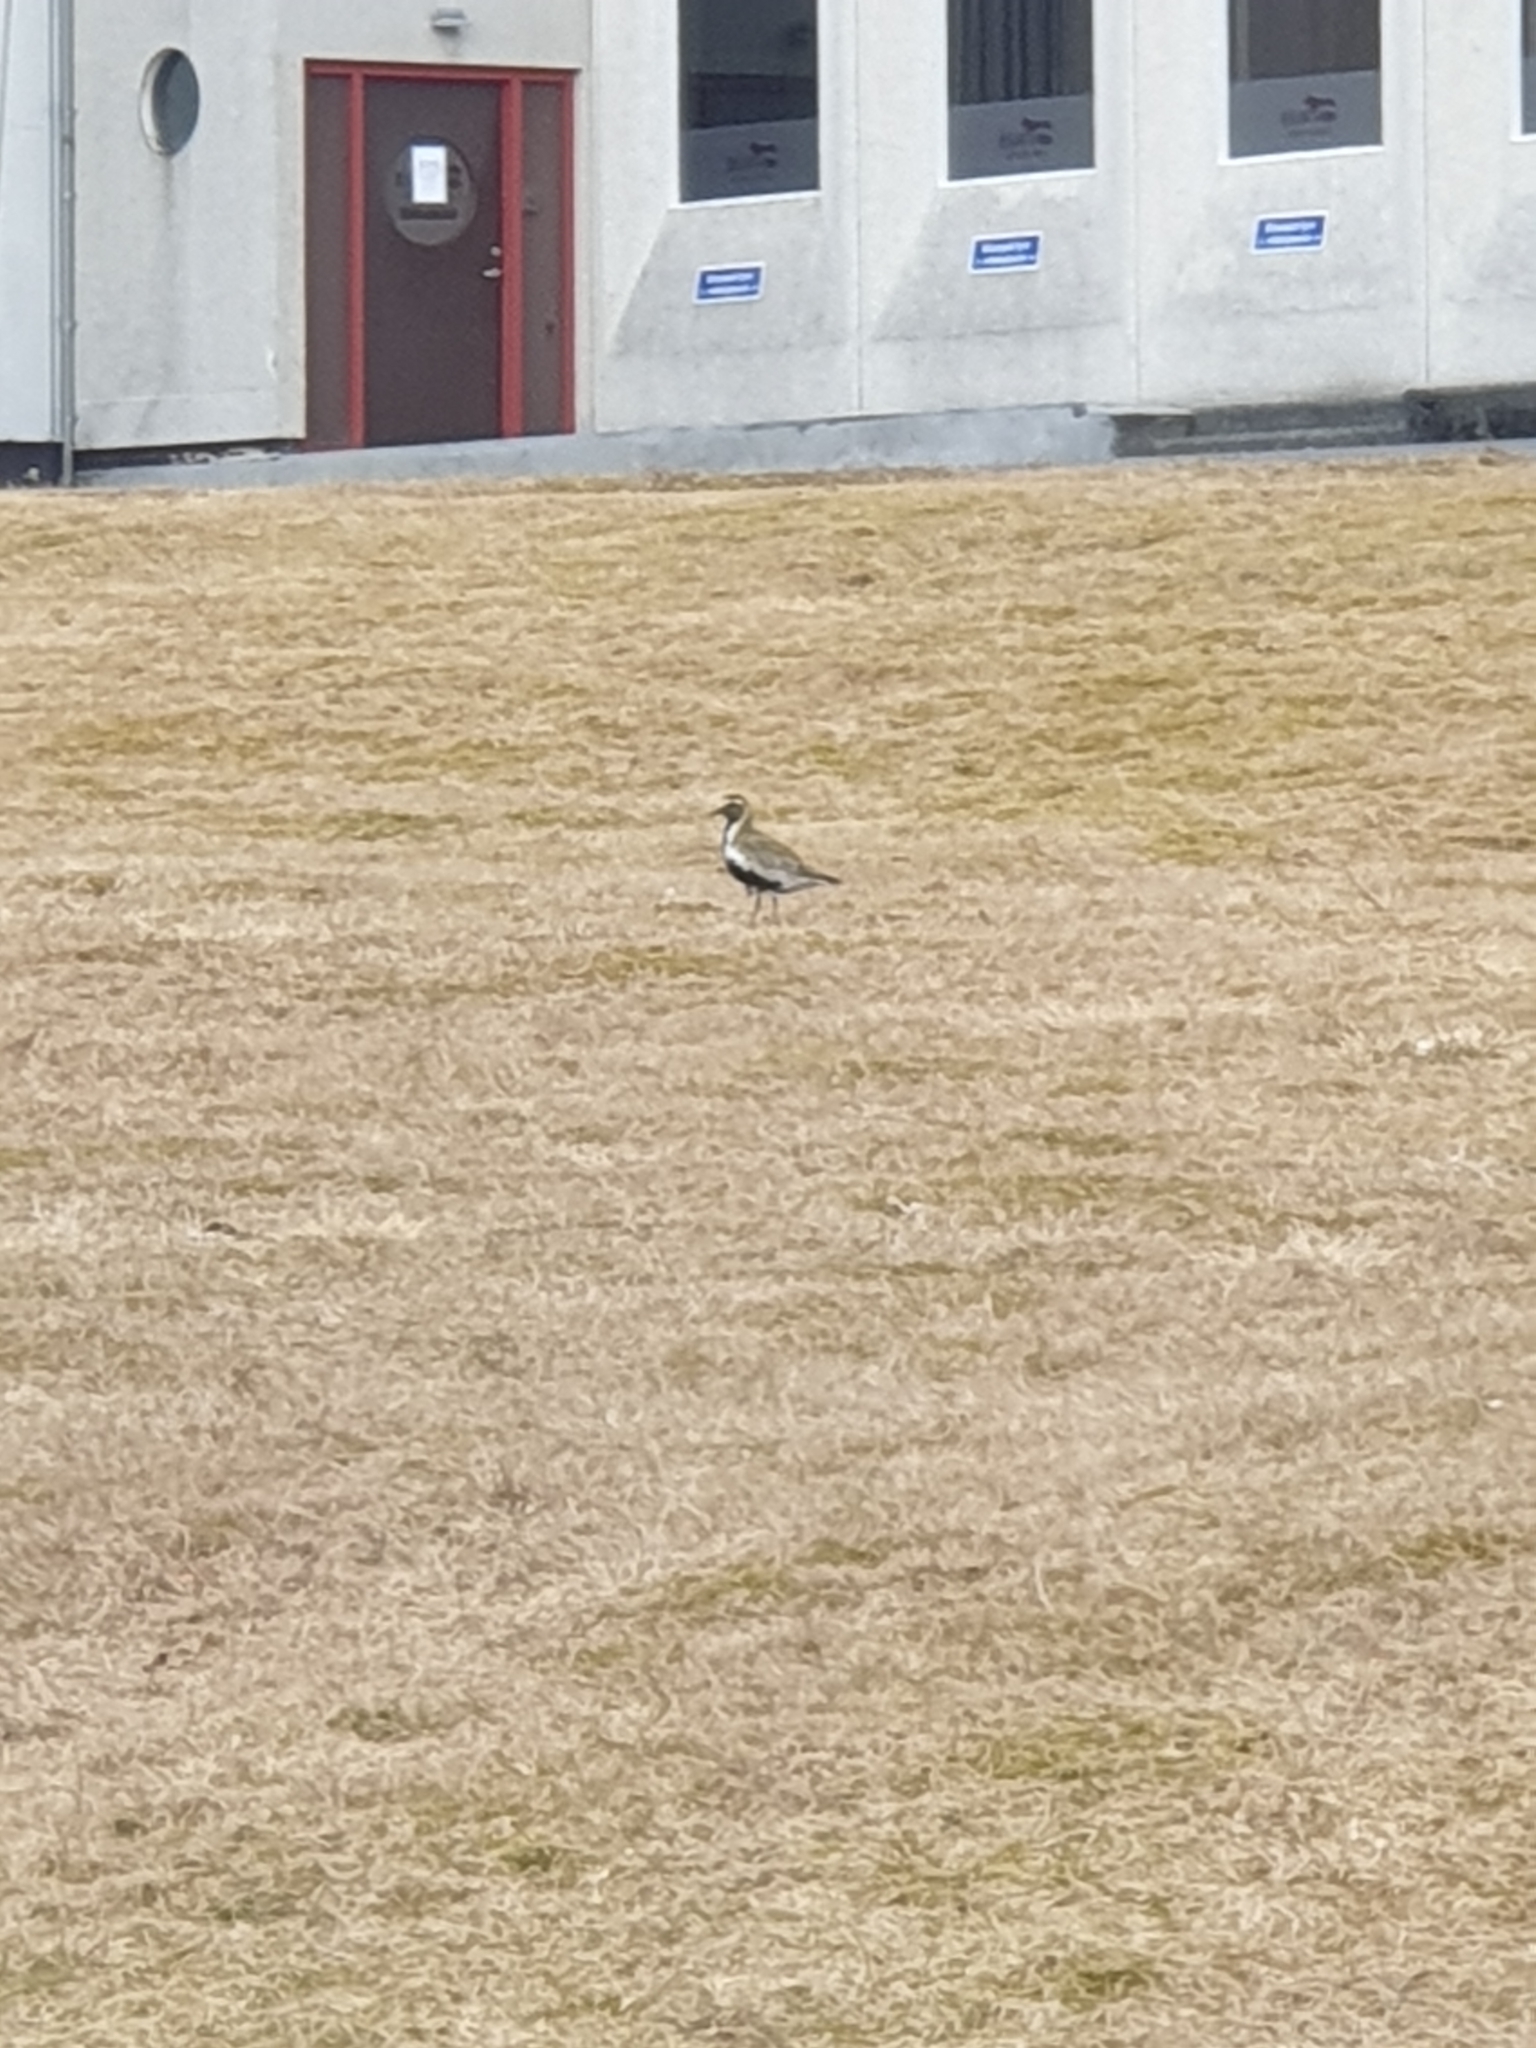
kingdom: Animalia
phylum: Chordata
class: Aves
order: Charadriiformes
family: Charadriidae
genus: Pluvialis
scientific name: Pluvialis apricaria
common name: European golden plover
